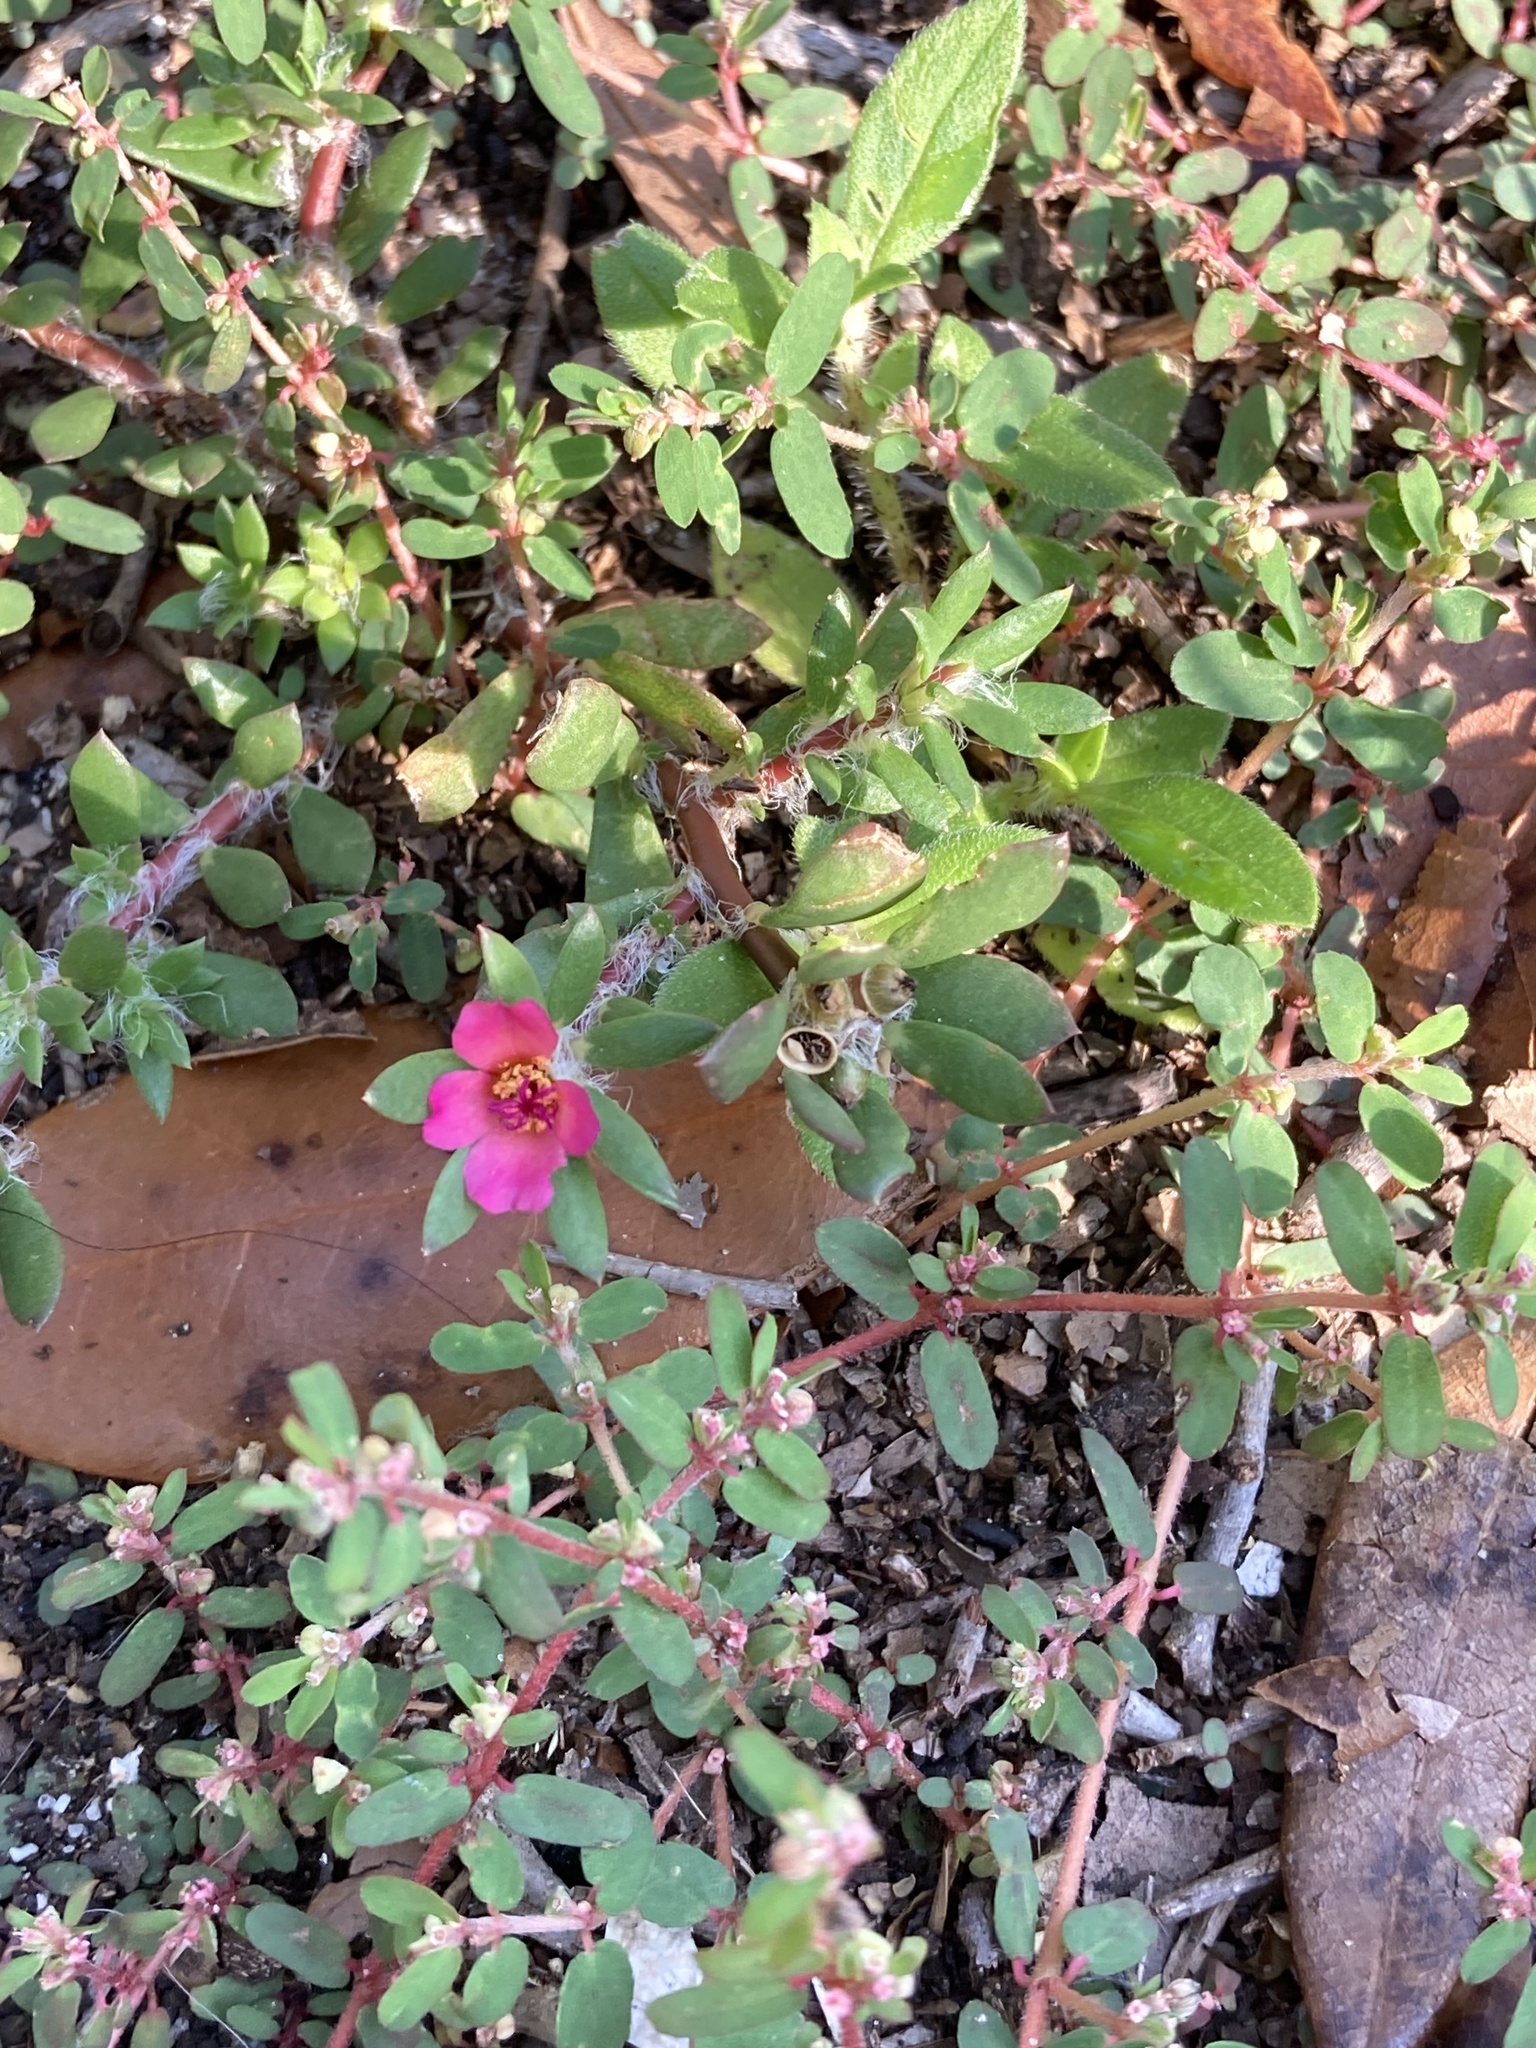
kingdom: Plantae
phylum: Tracheophyta
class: Magnoliopsida
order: Caryophyllales
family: Portulacaceae
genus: Portulaca
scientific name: Portulaca amilis
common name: Paraguayan purslane
